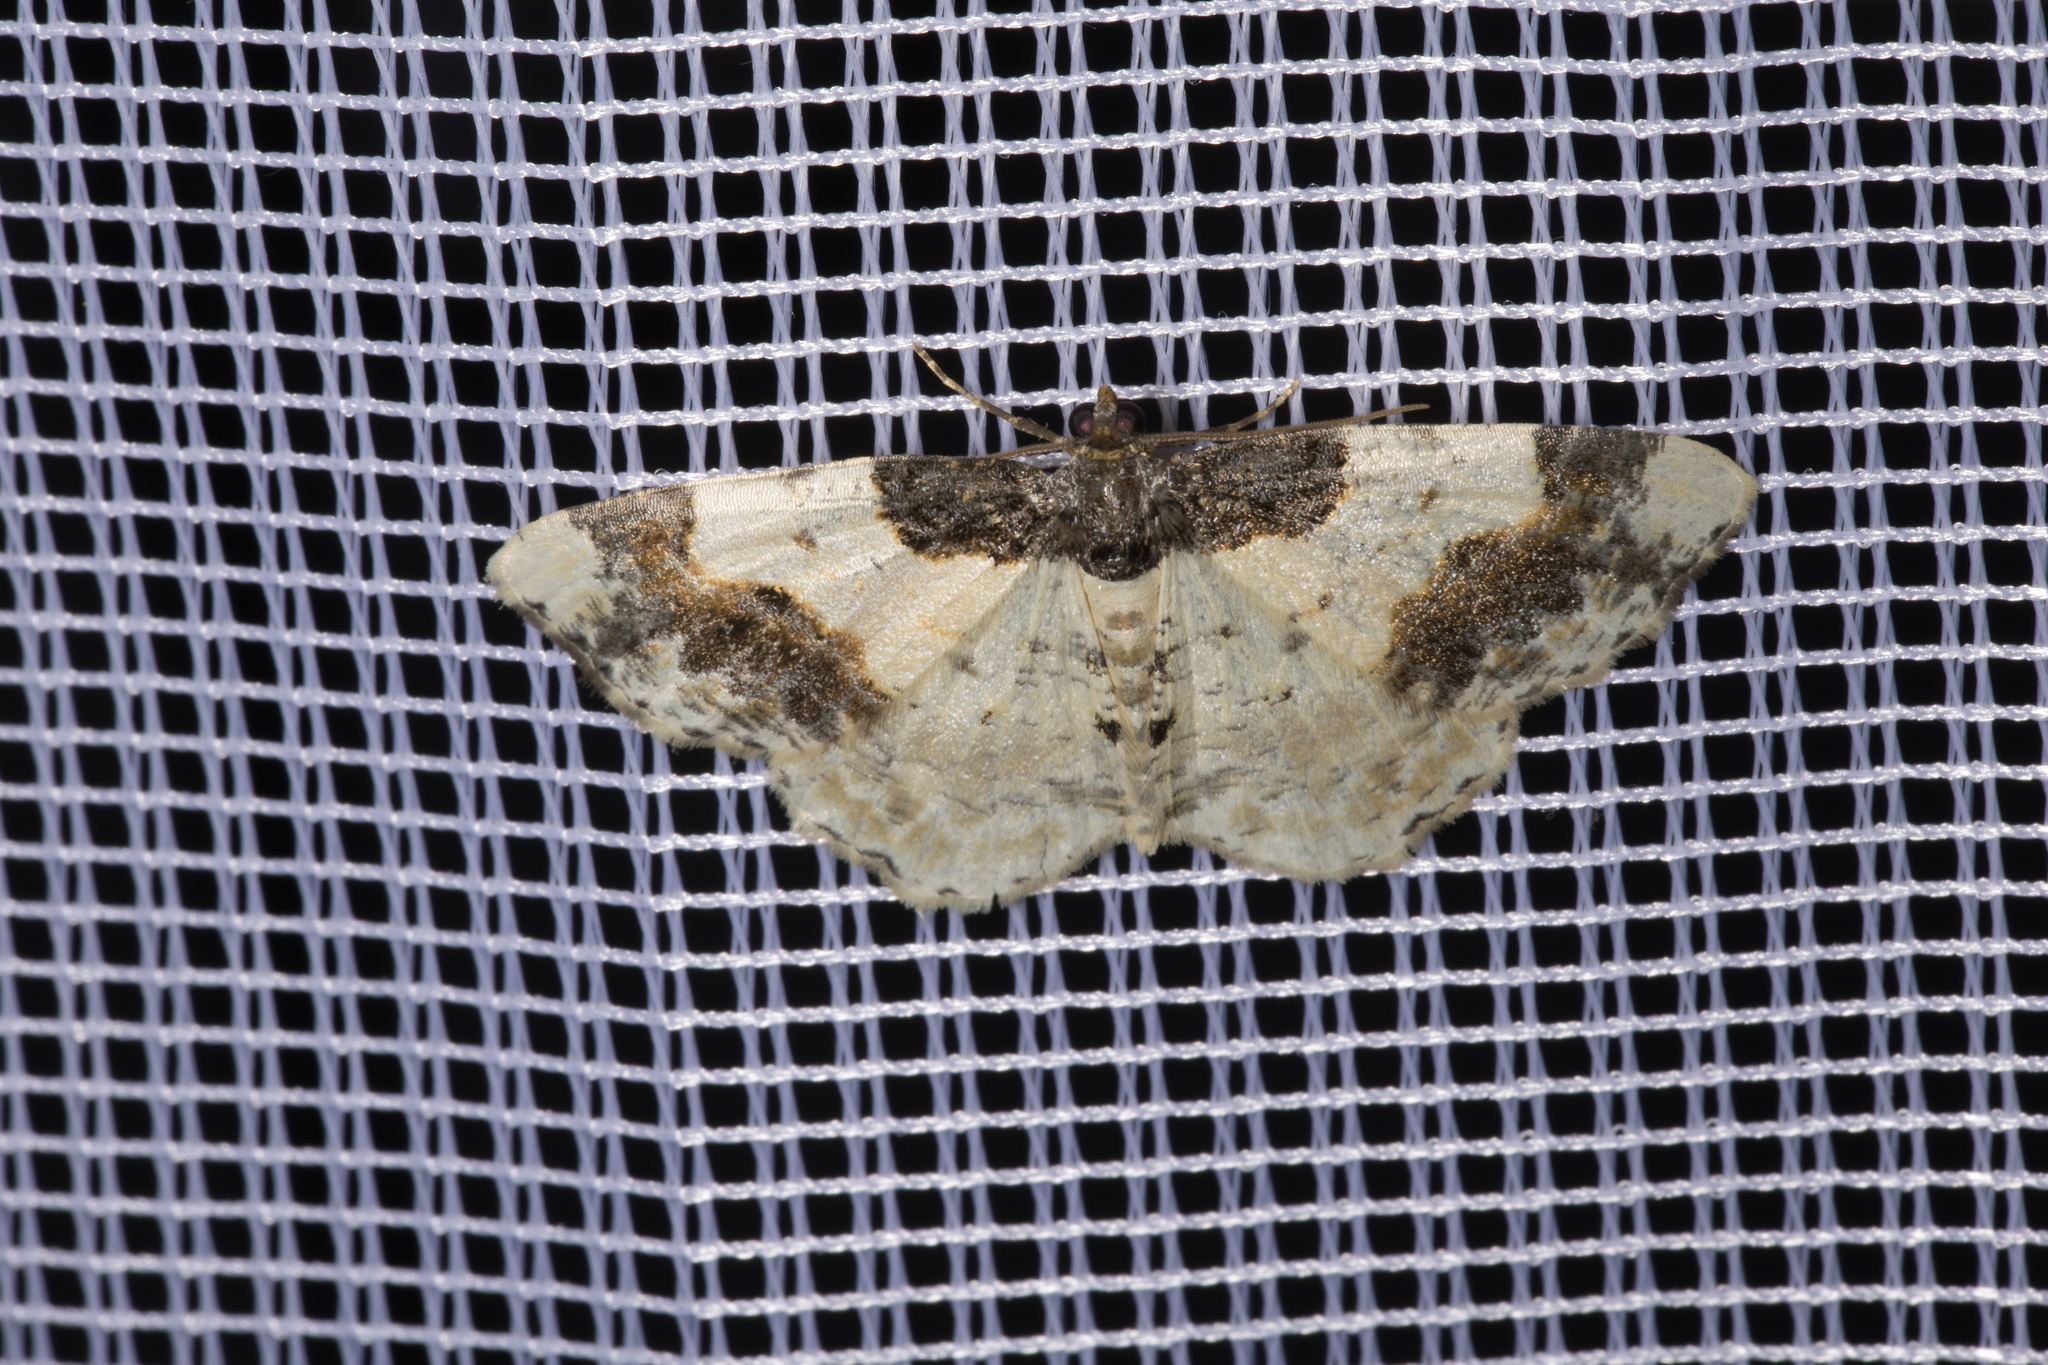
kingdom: Animalia
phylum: Arthropoda
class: Insecta
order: Lepidoptera
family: Geometridae
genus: Ligdia
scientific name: Ligdia adustata
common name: Scorched carpet
